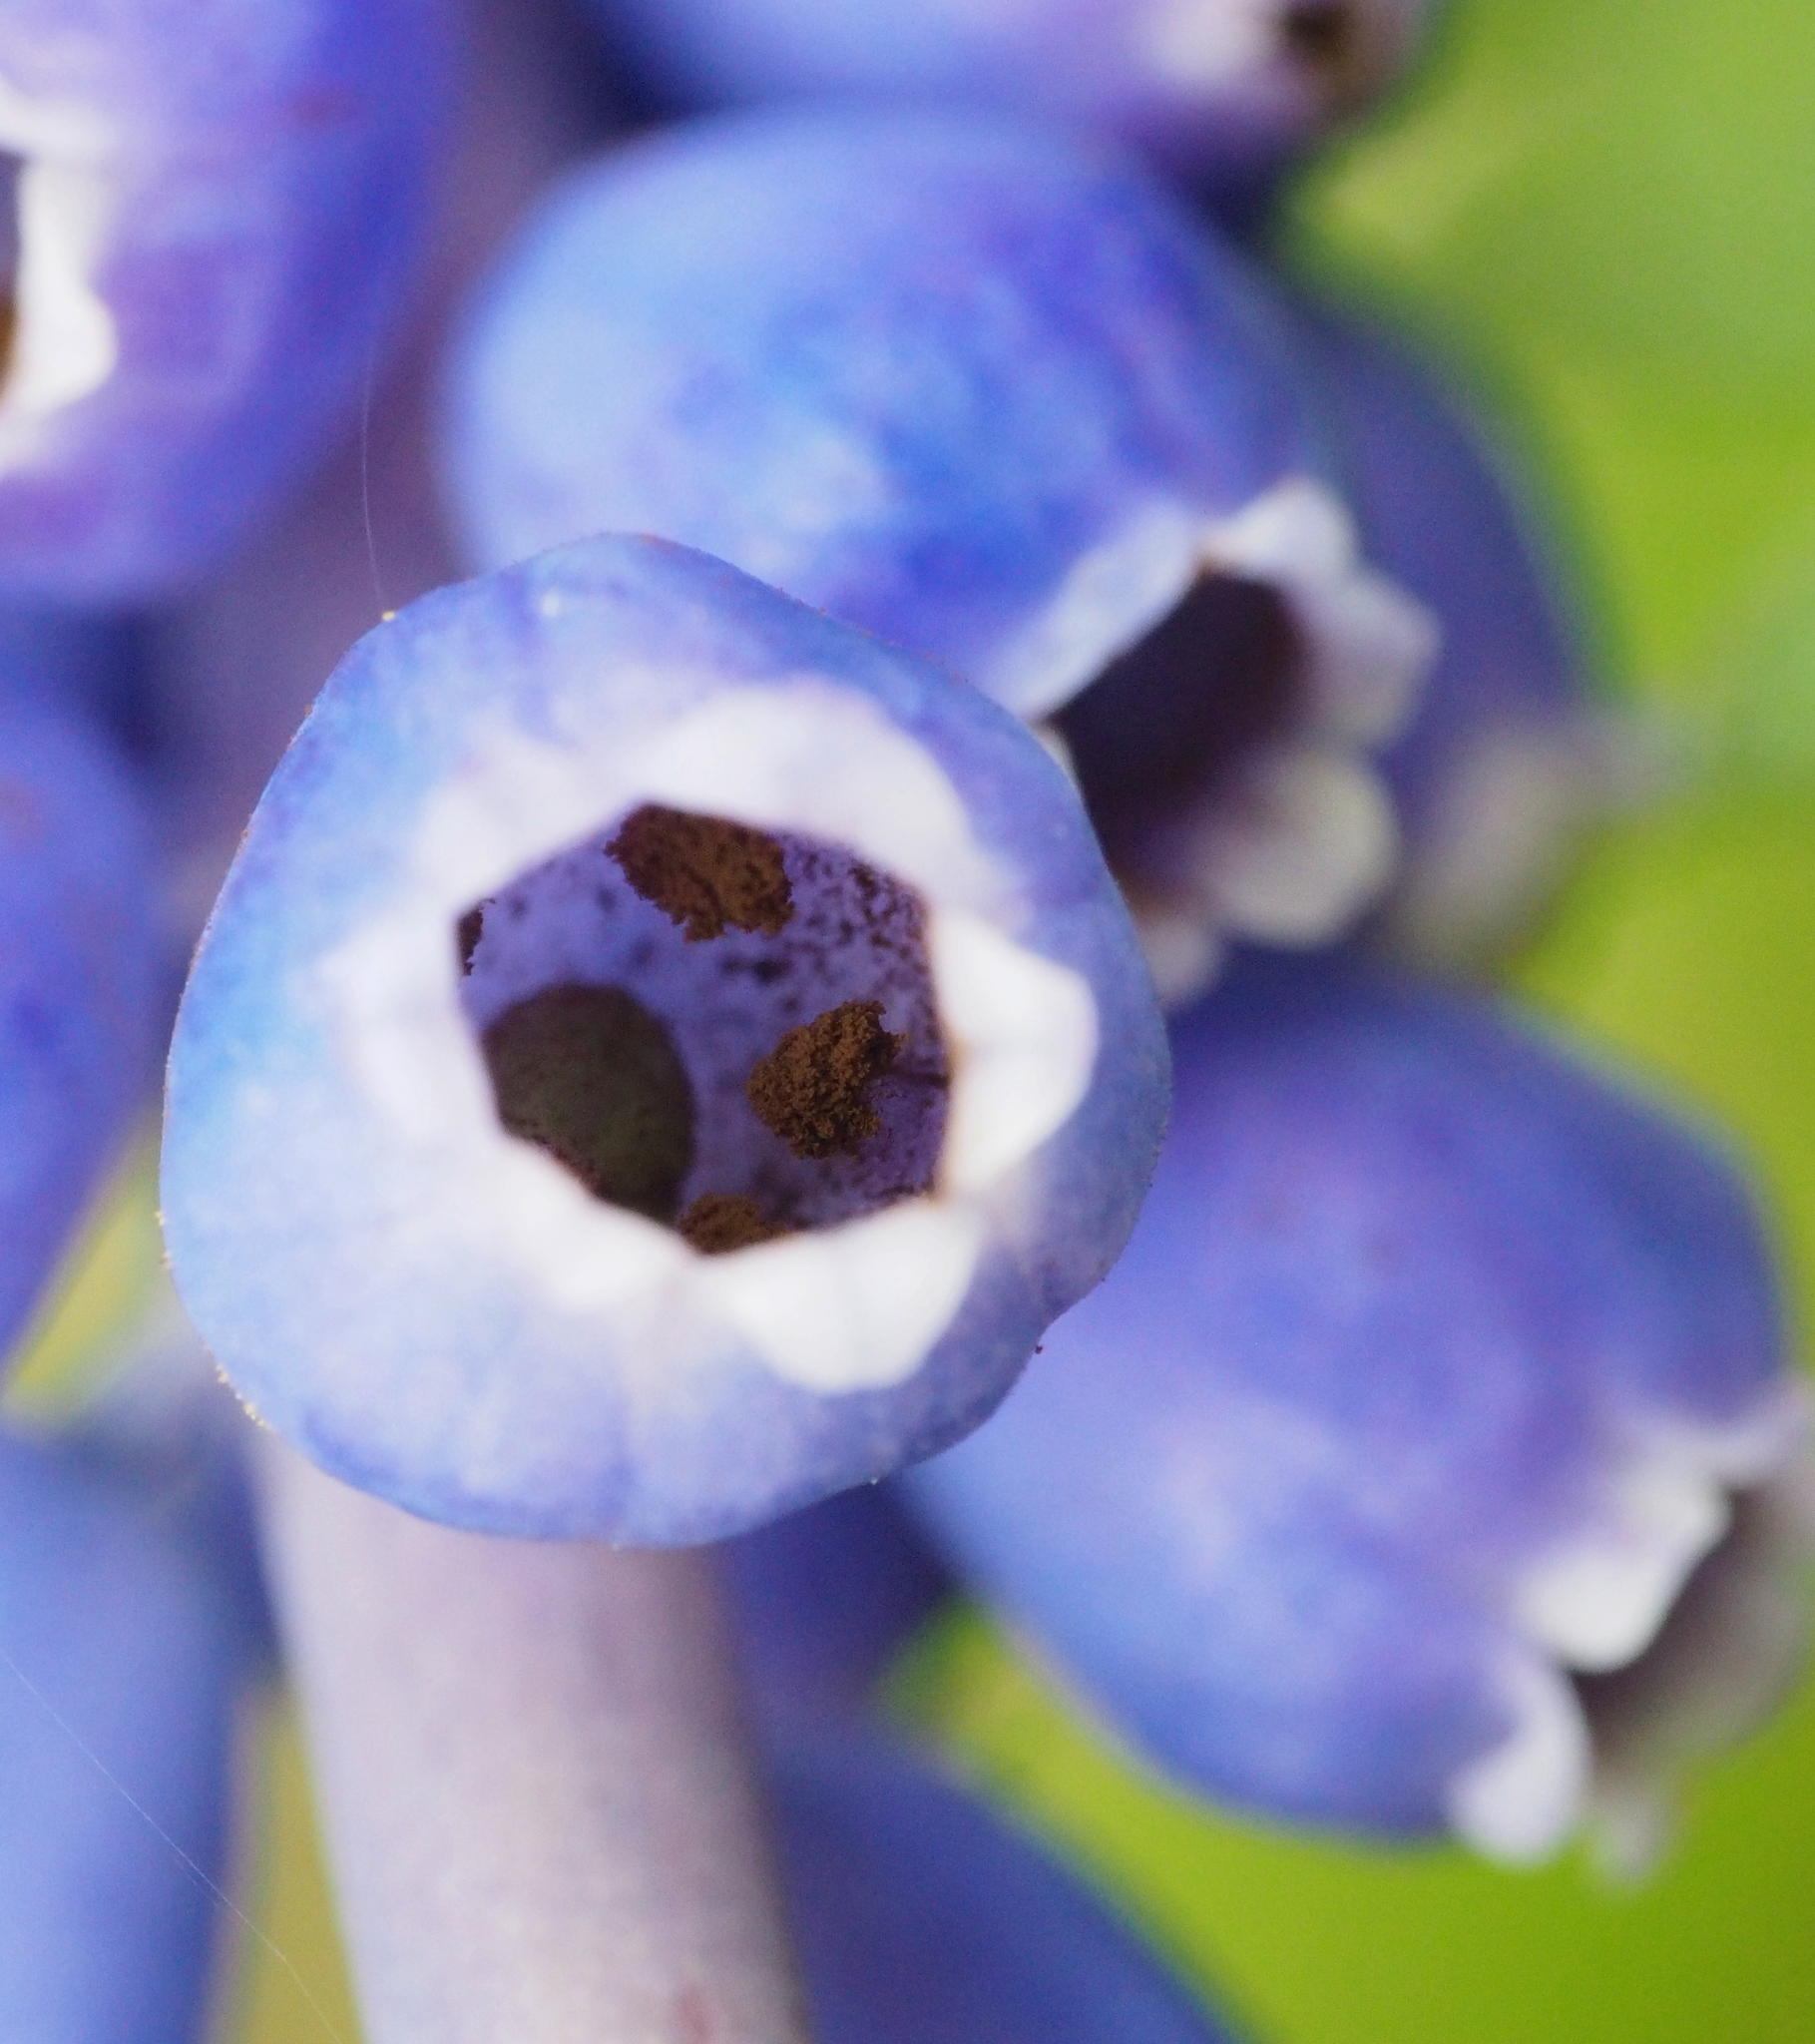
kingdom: Fungi
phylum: Basidiomycota
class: Ustilaginomycetes
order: Urocystidales
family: Floromycetaceae
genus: Antherospora
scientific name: Antherospora hortensis
